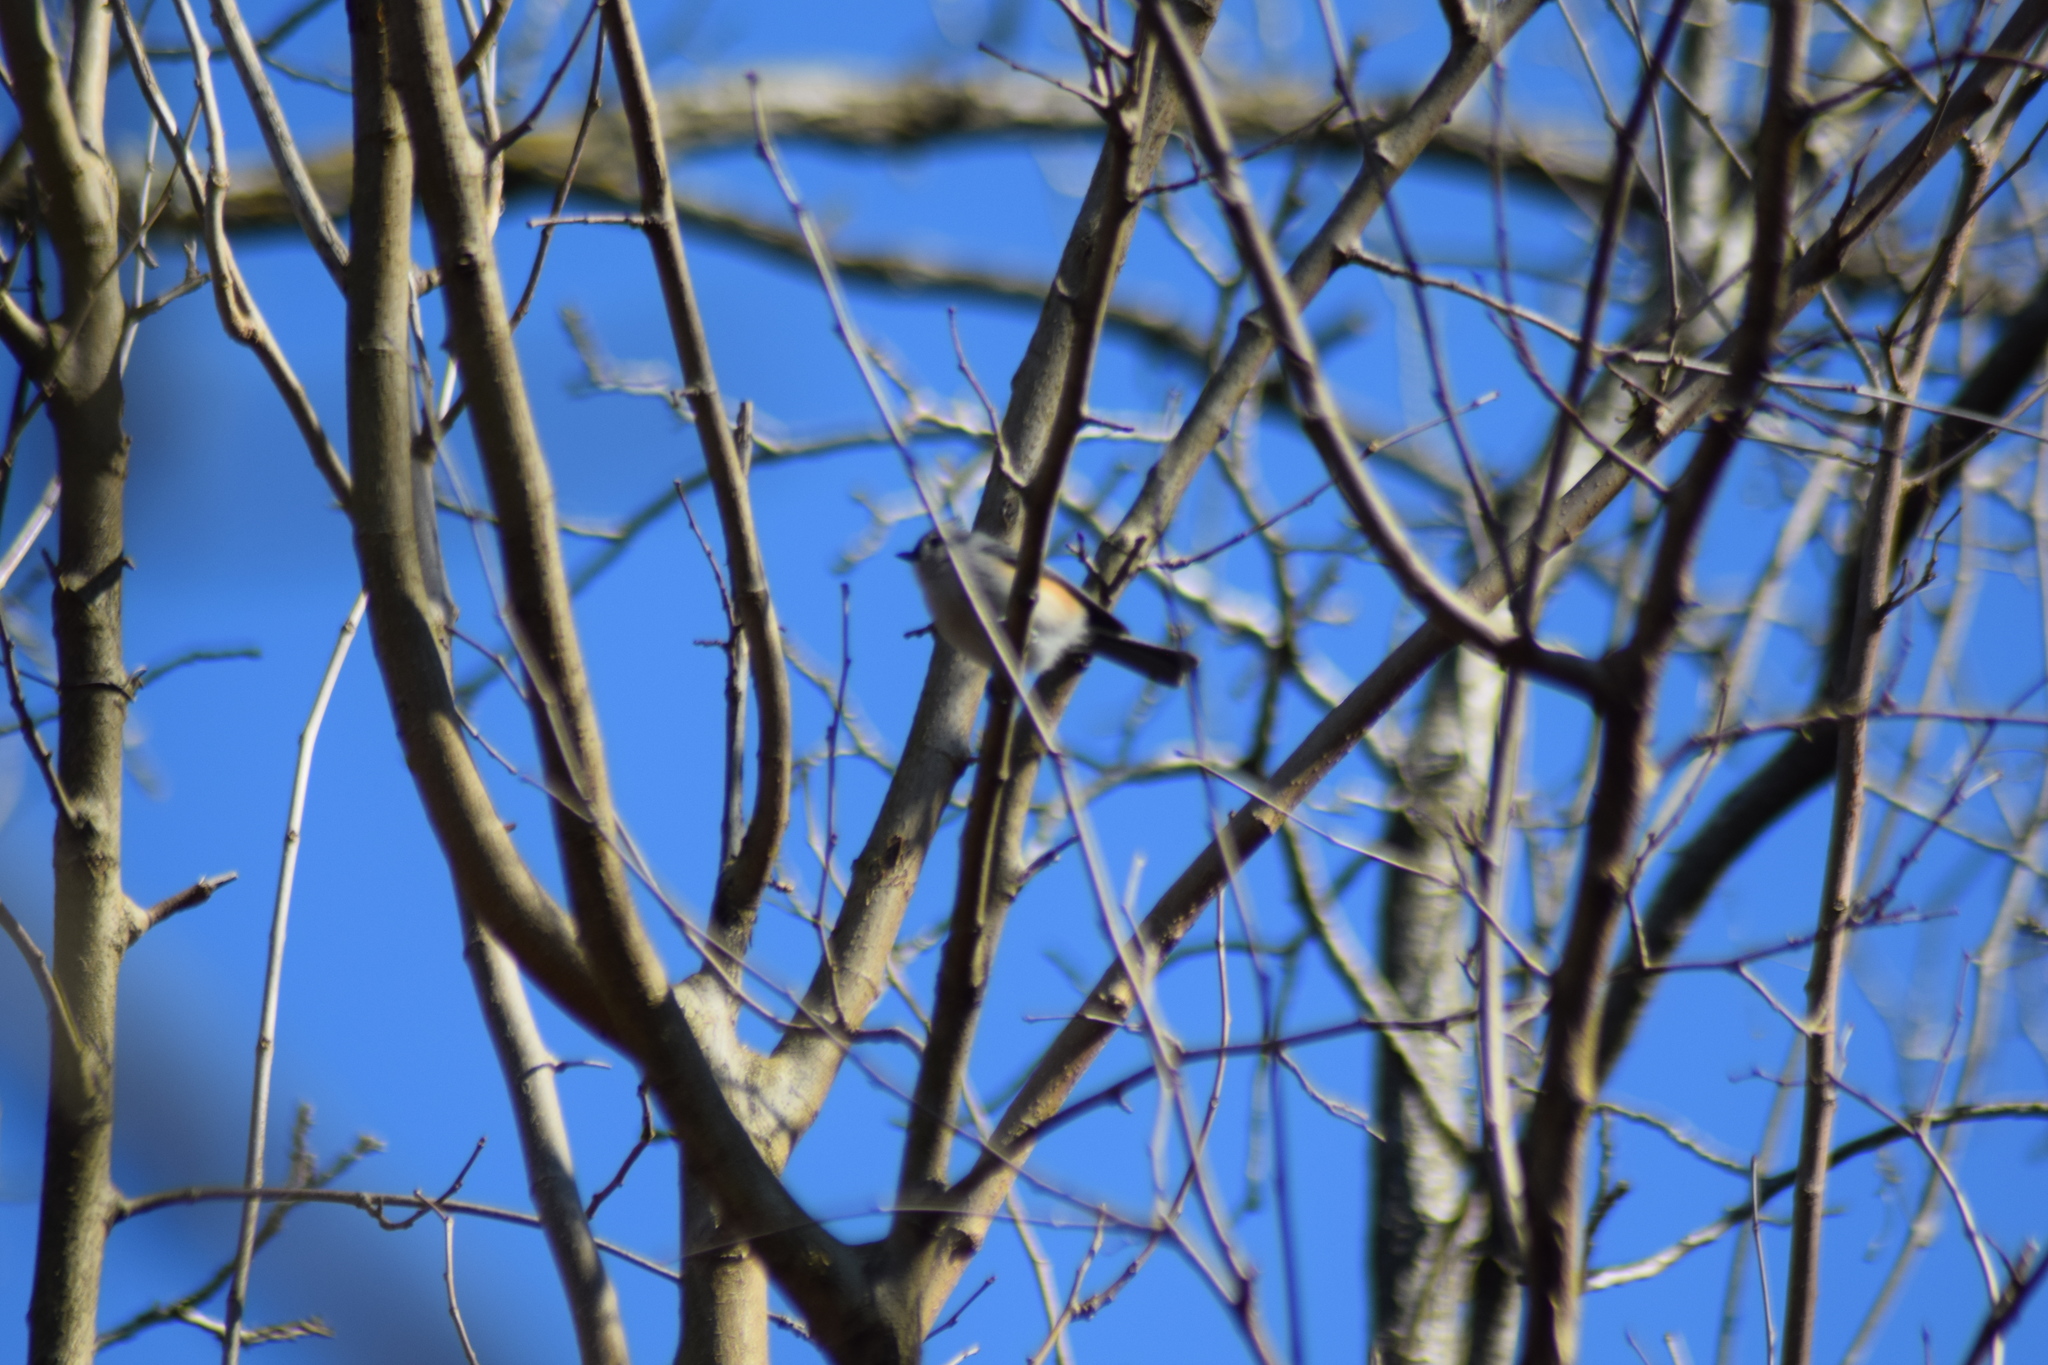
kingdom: Animalia
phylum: Chordata
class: Aves
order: Passeriformes
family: Paridae
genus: Baeolophus
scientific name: Baeolophus bicolor
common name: Tufted titmouse
